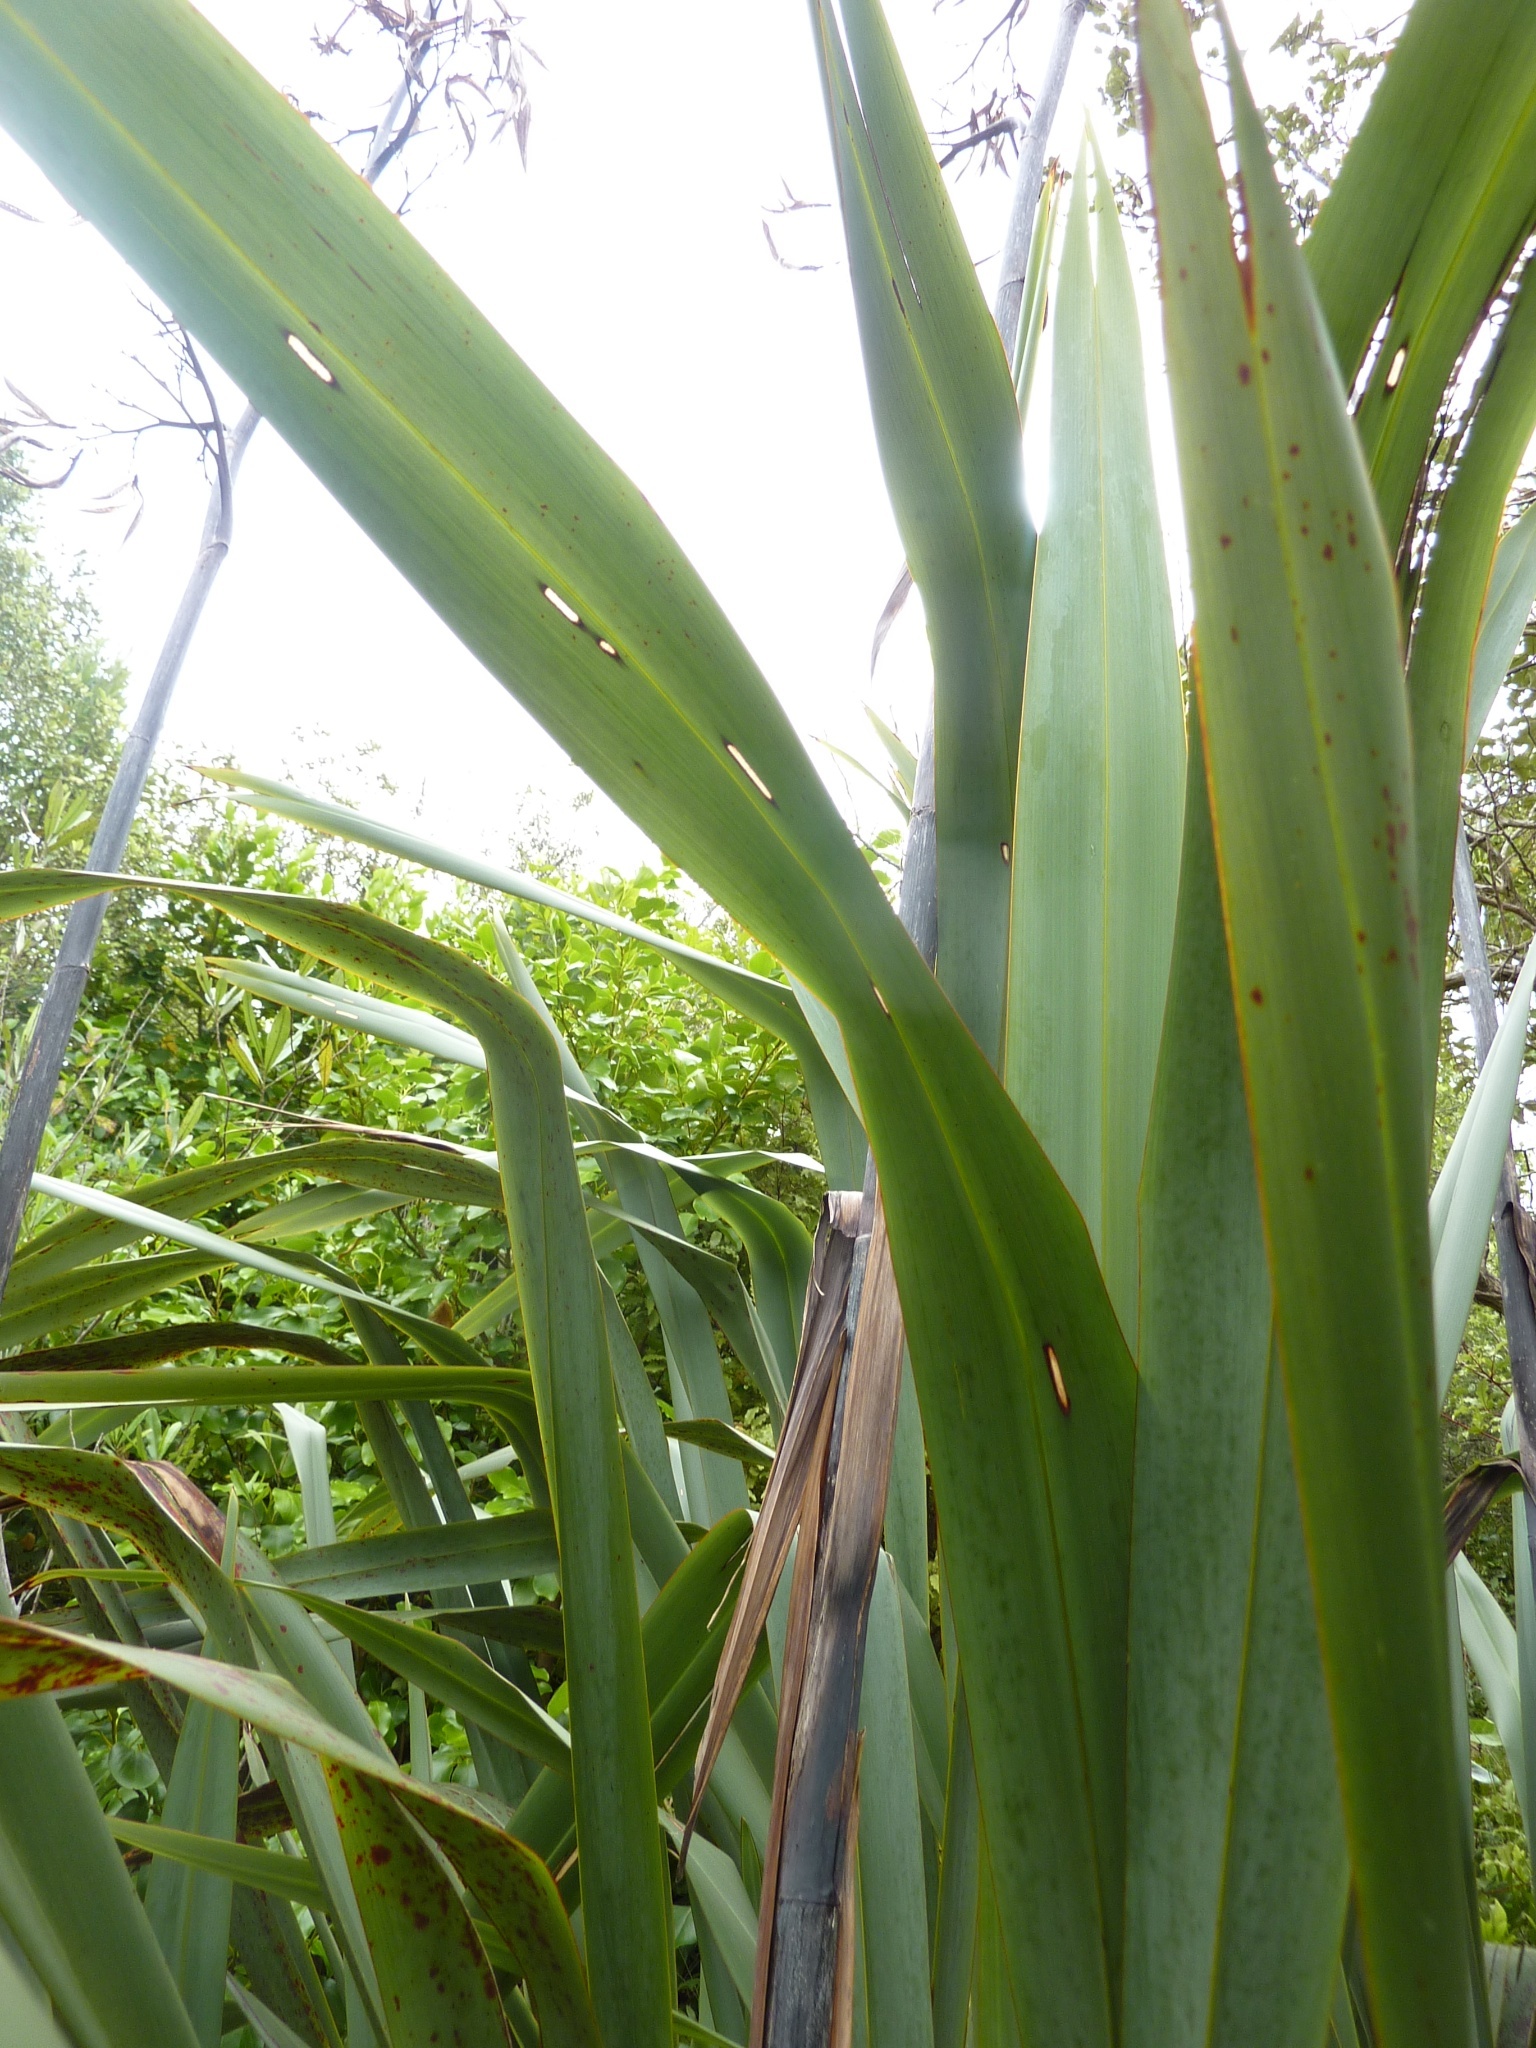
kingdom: Plantae
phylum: Tracheophyta
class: Liliopsida
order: Asparagales
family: Asphodelaceae
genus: Phormium
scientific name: Phormium colensoi
